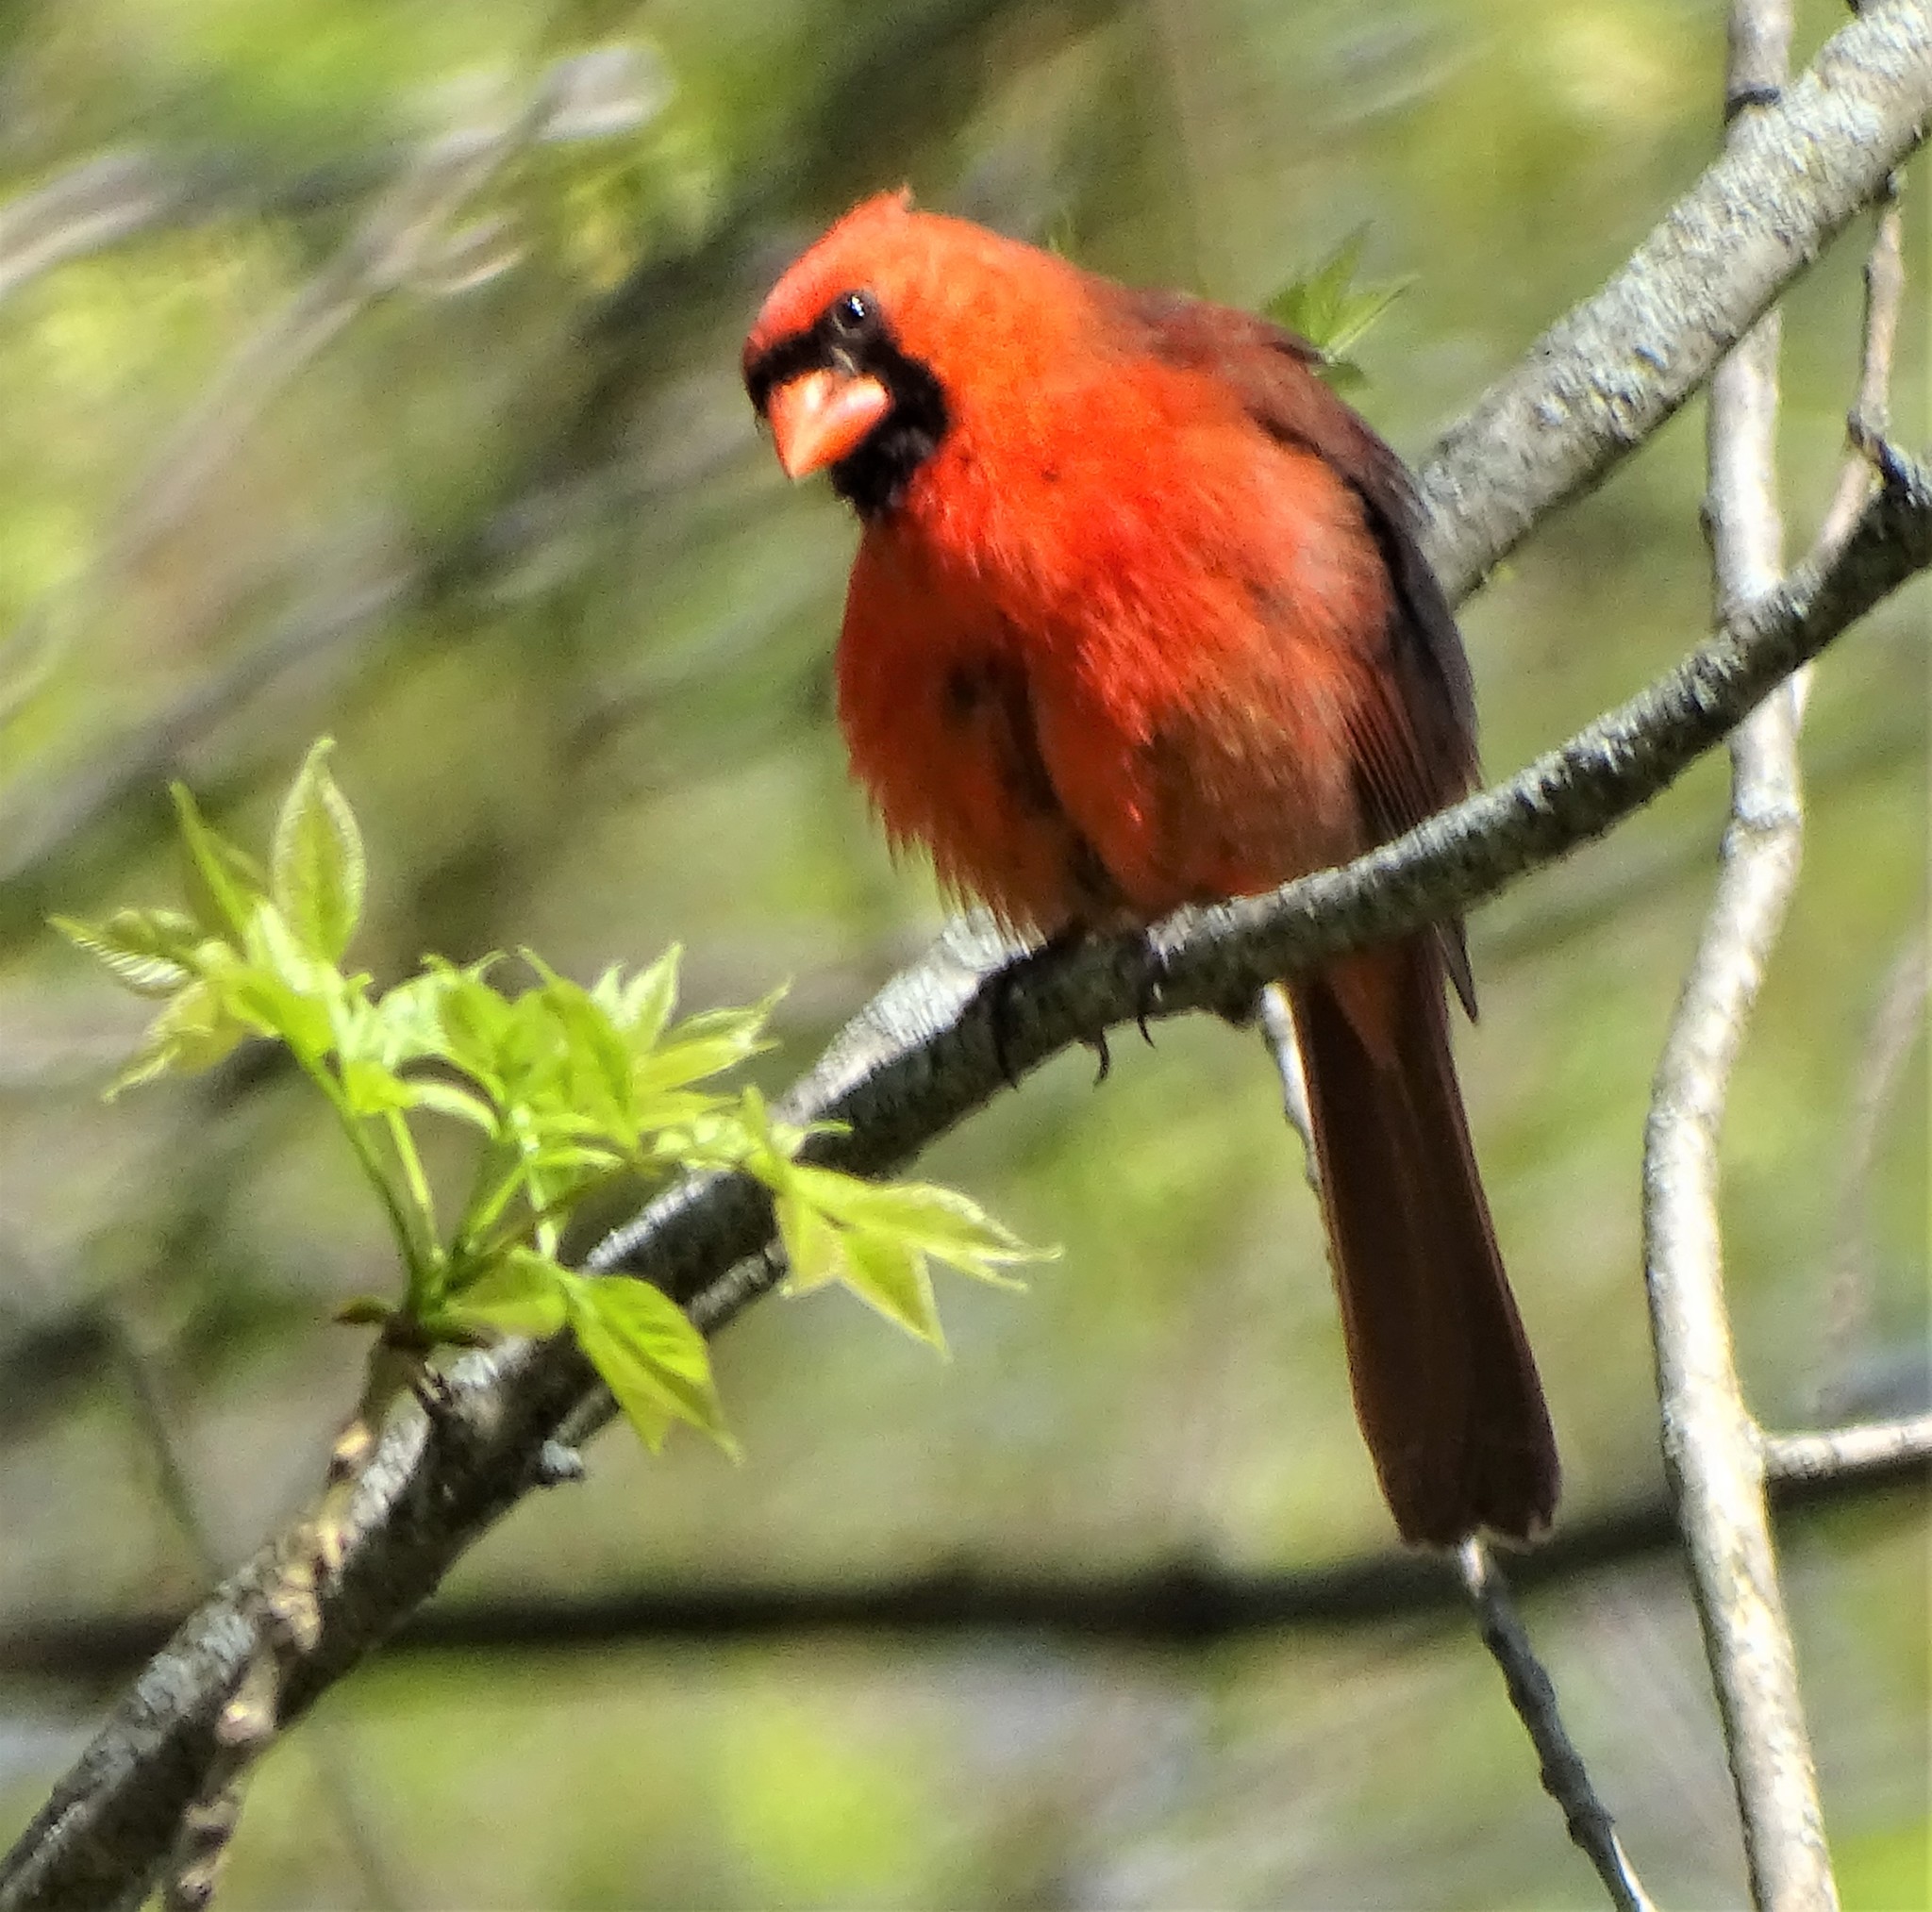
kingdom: Animalia
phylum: Chordata
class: Aves
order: Passeriformes
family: Cardinalidae
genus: Cardinalis
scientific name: Cardinalis cardinalis
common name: Northern cardinal
